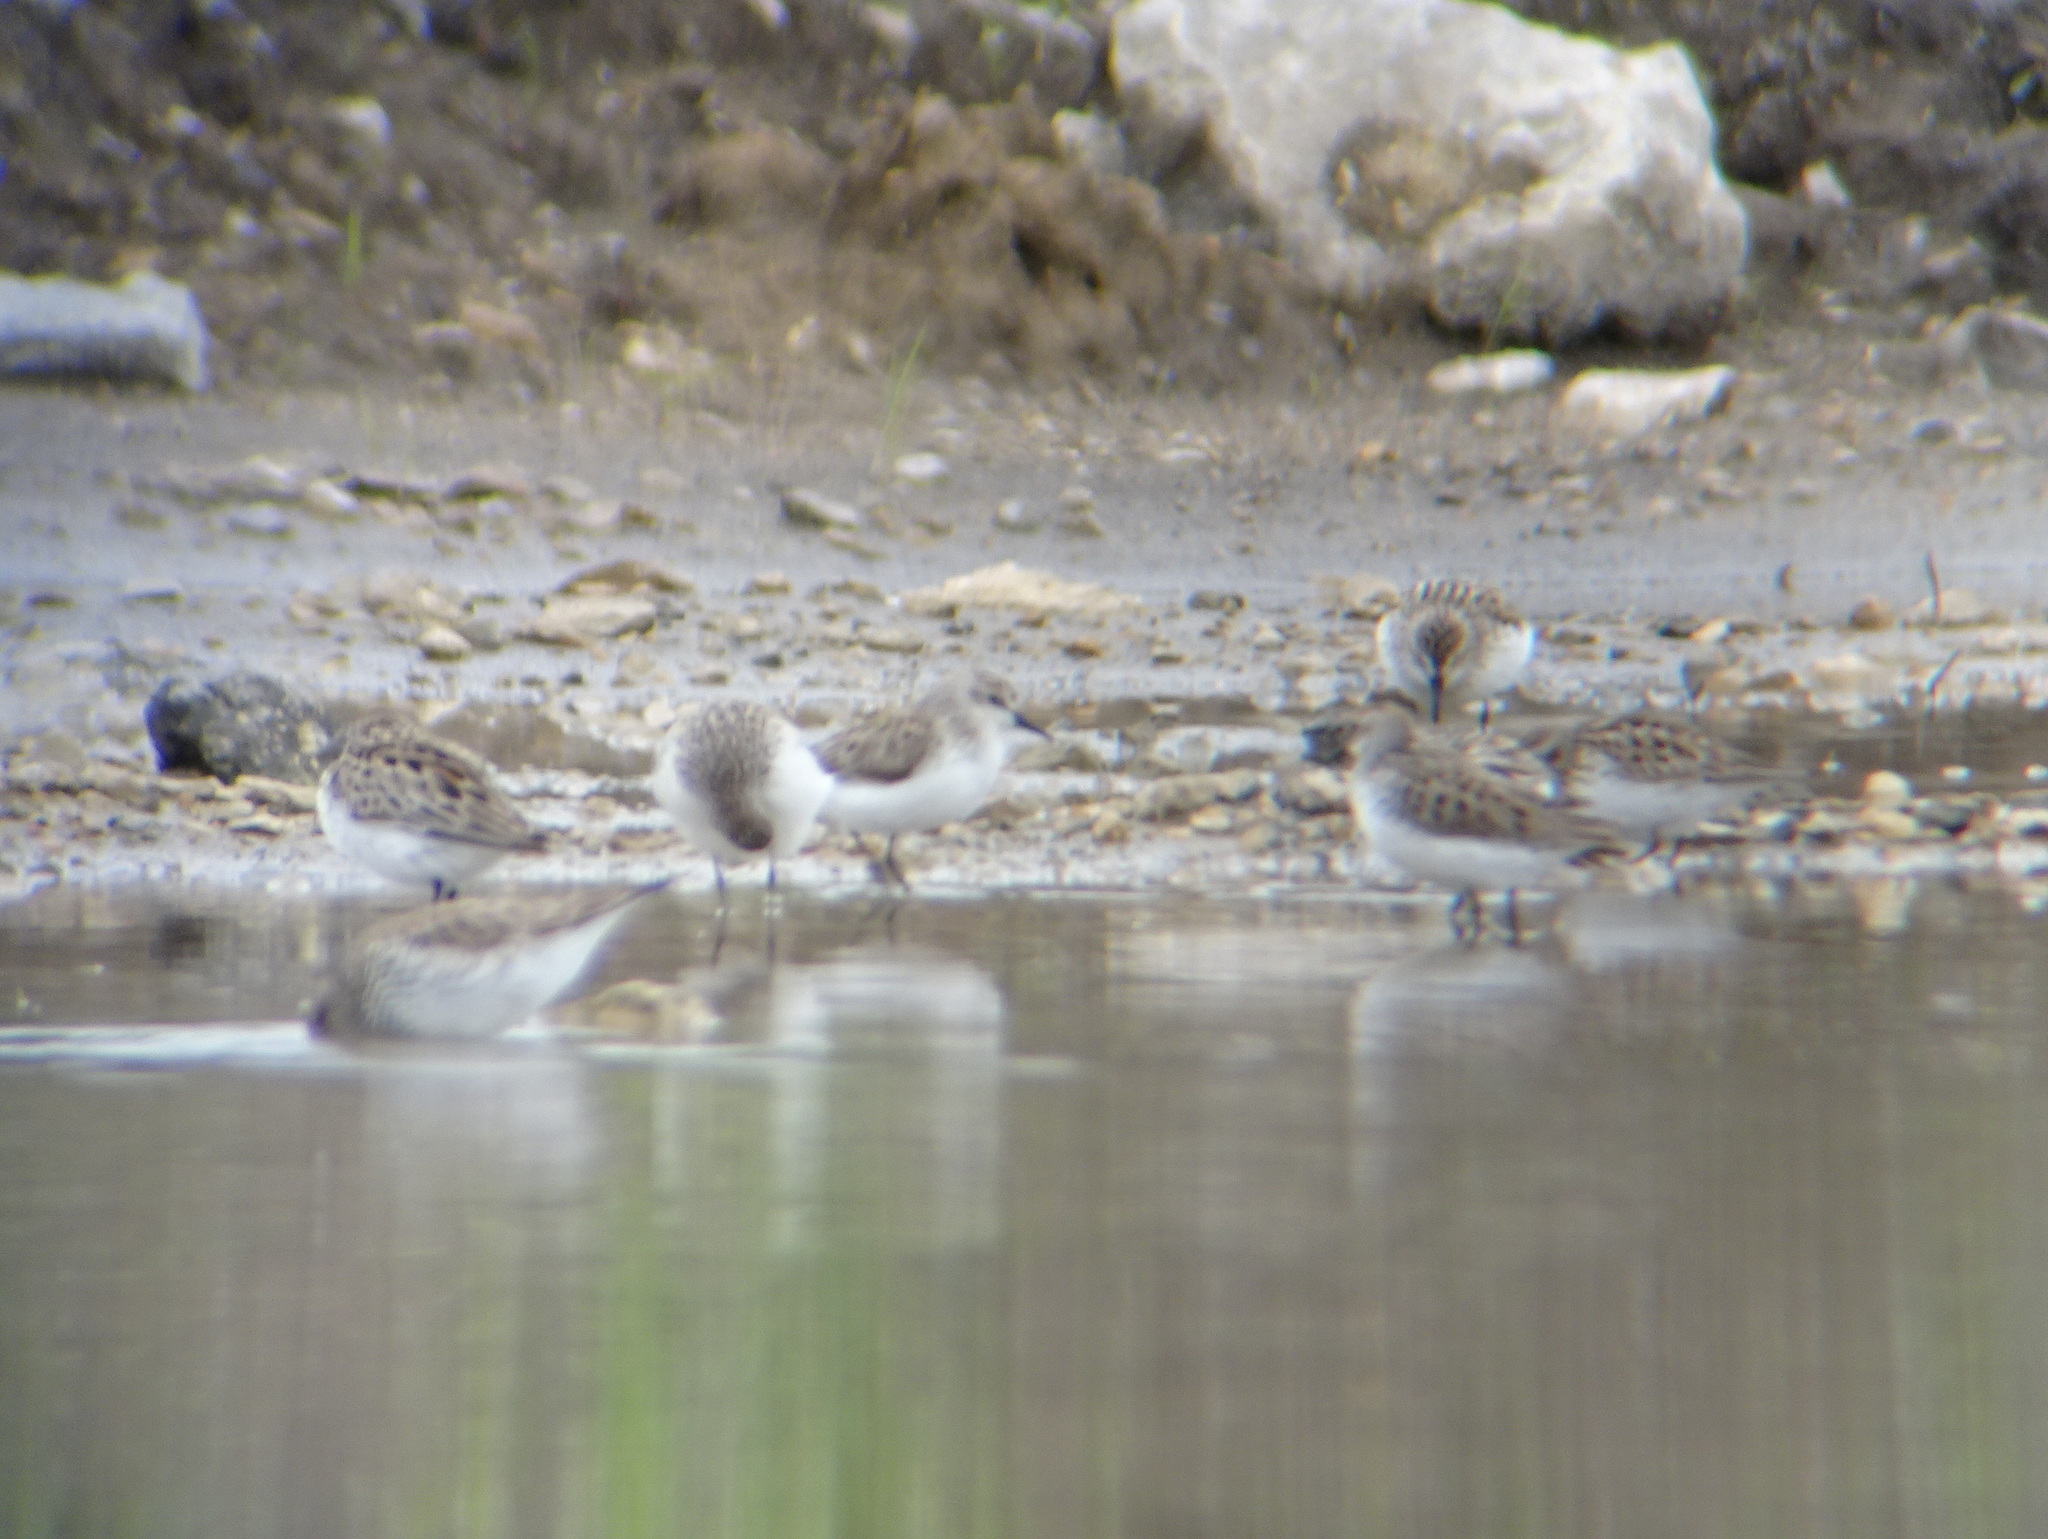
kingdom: Animalia
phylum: Chordata
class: Aves
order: Charadriiformes
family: Scolopacidae
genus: Calidris
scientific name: Calidris pusilla
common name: Semipalmated sandpiper
